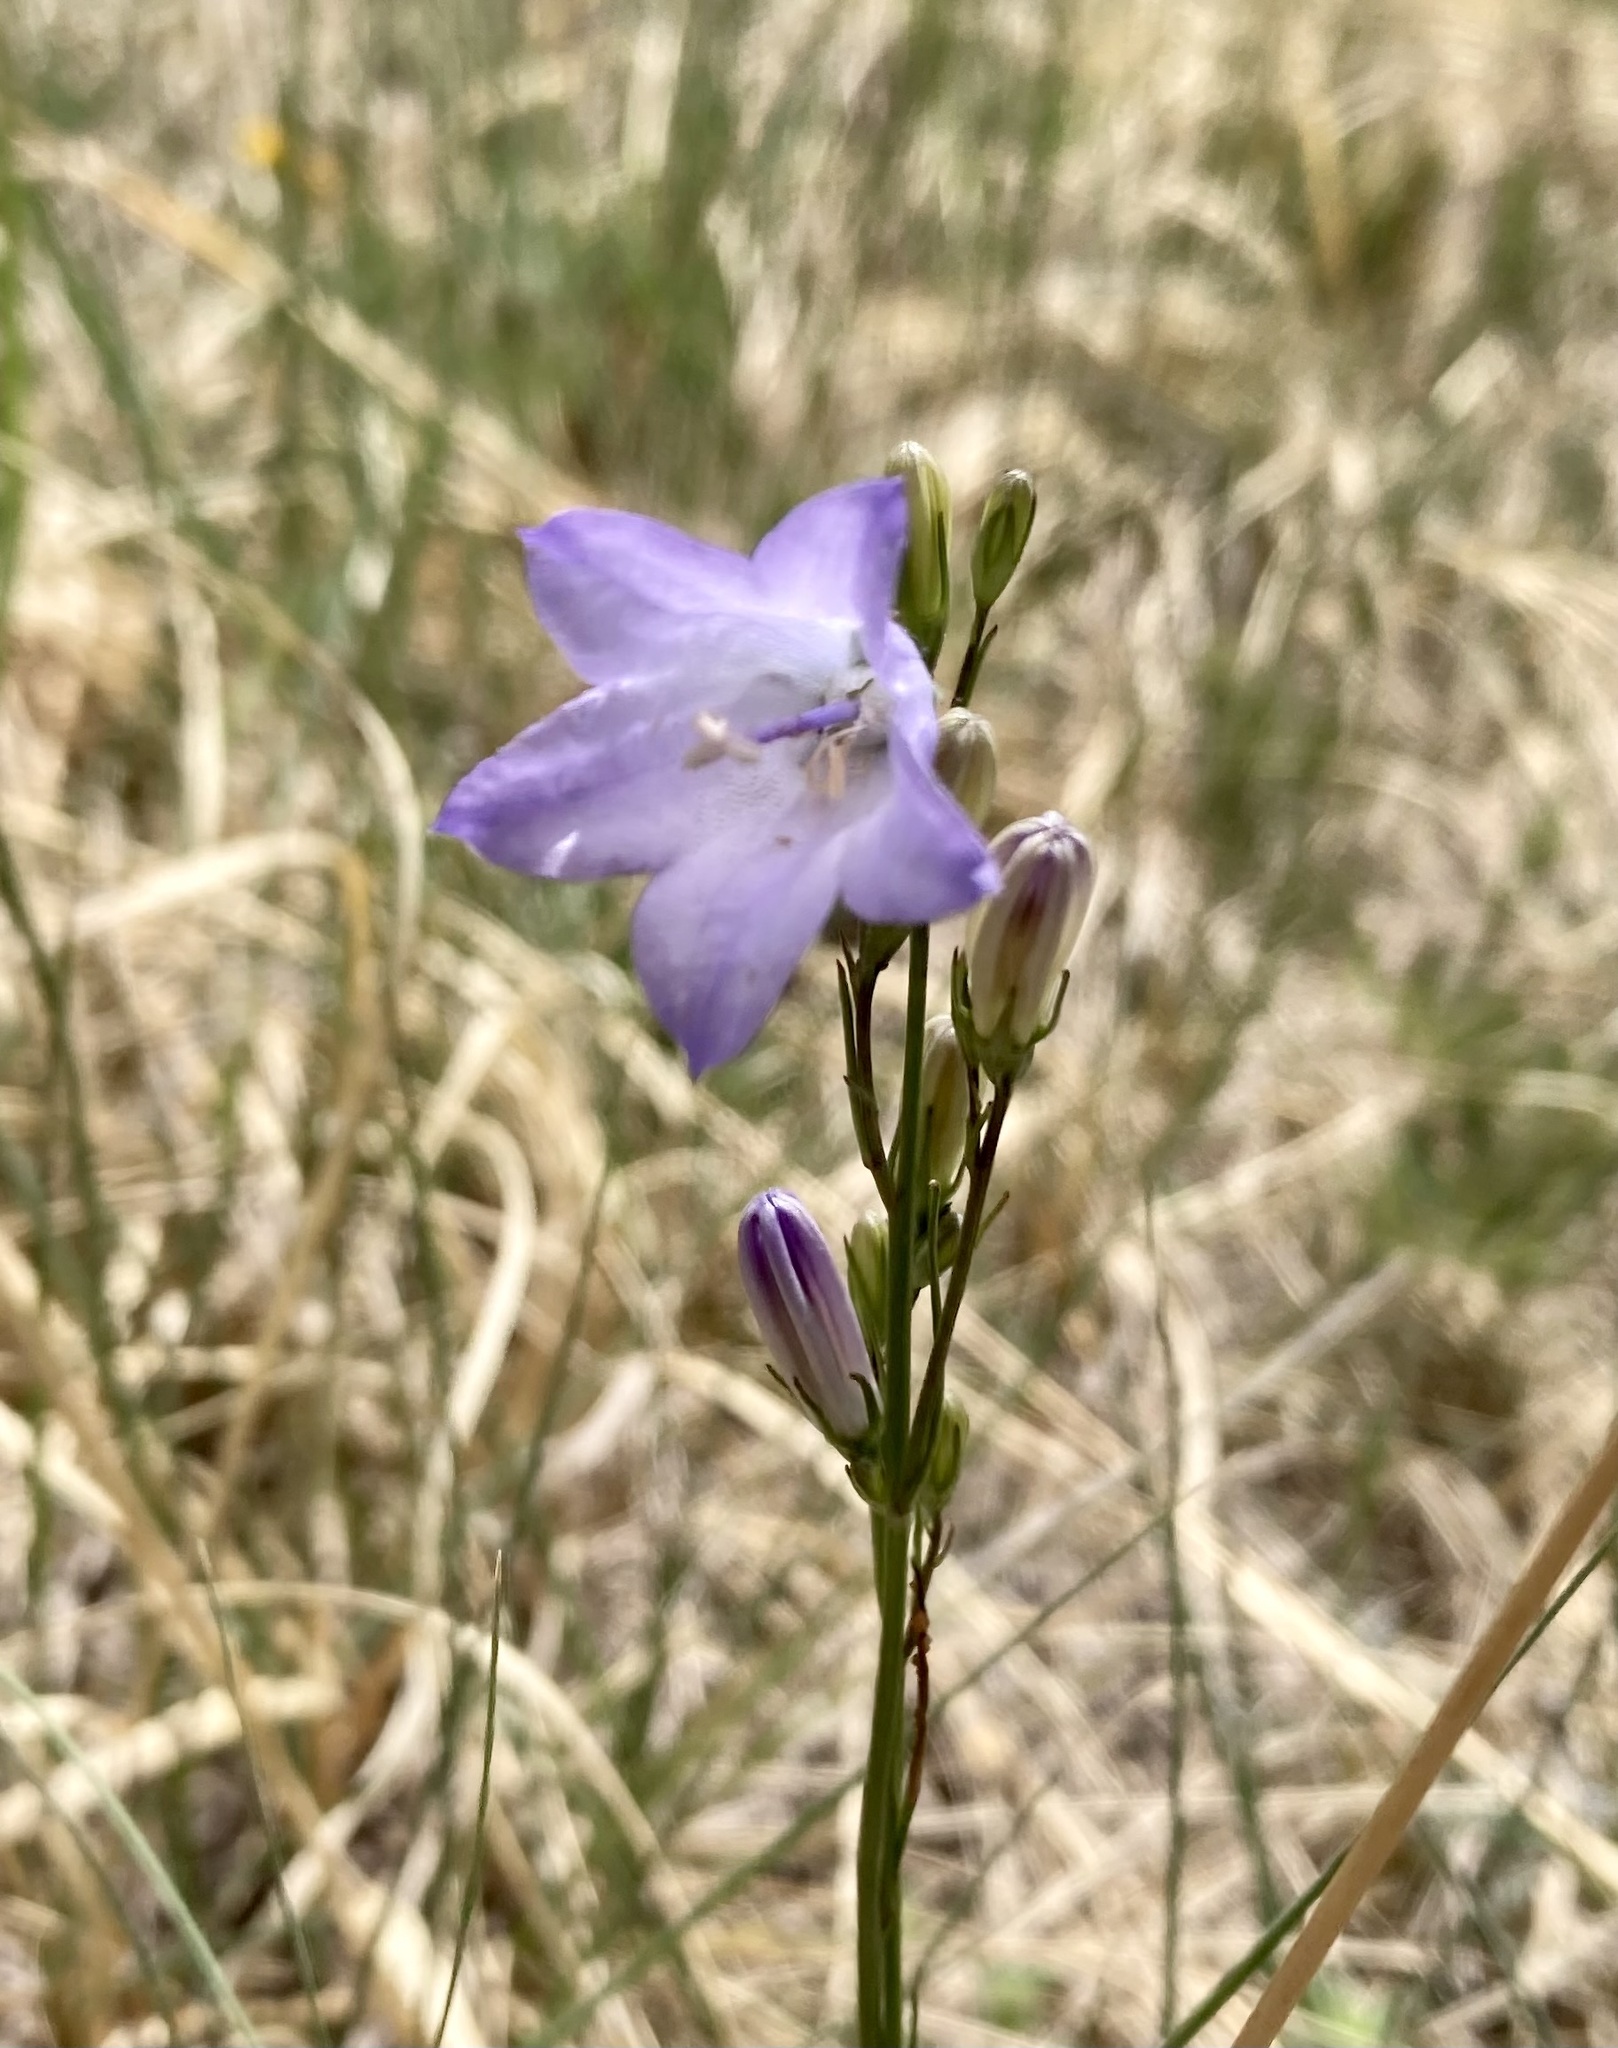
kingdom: Plantae
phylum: Tracheophyta
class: Magnoliopsida
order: Asterales
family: Campanulaceae
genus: Campanula
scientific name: Campanula alaskana
